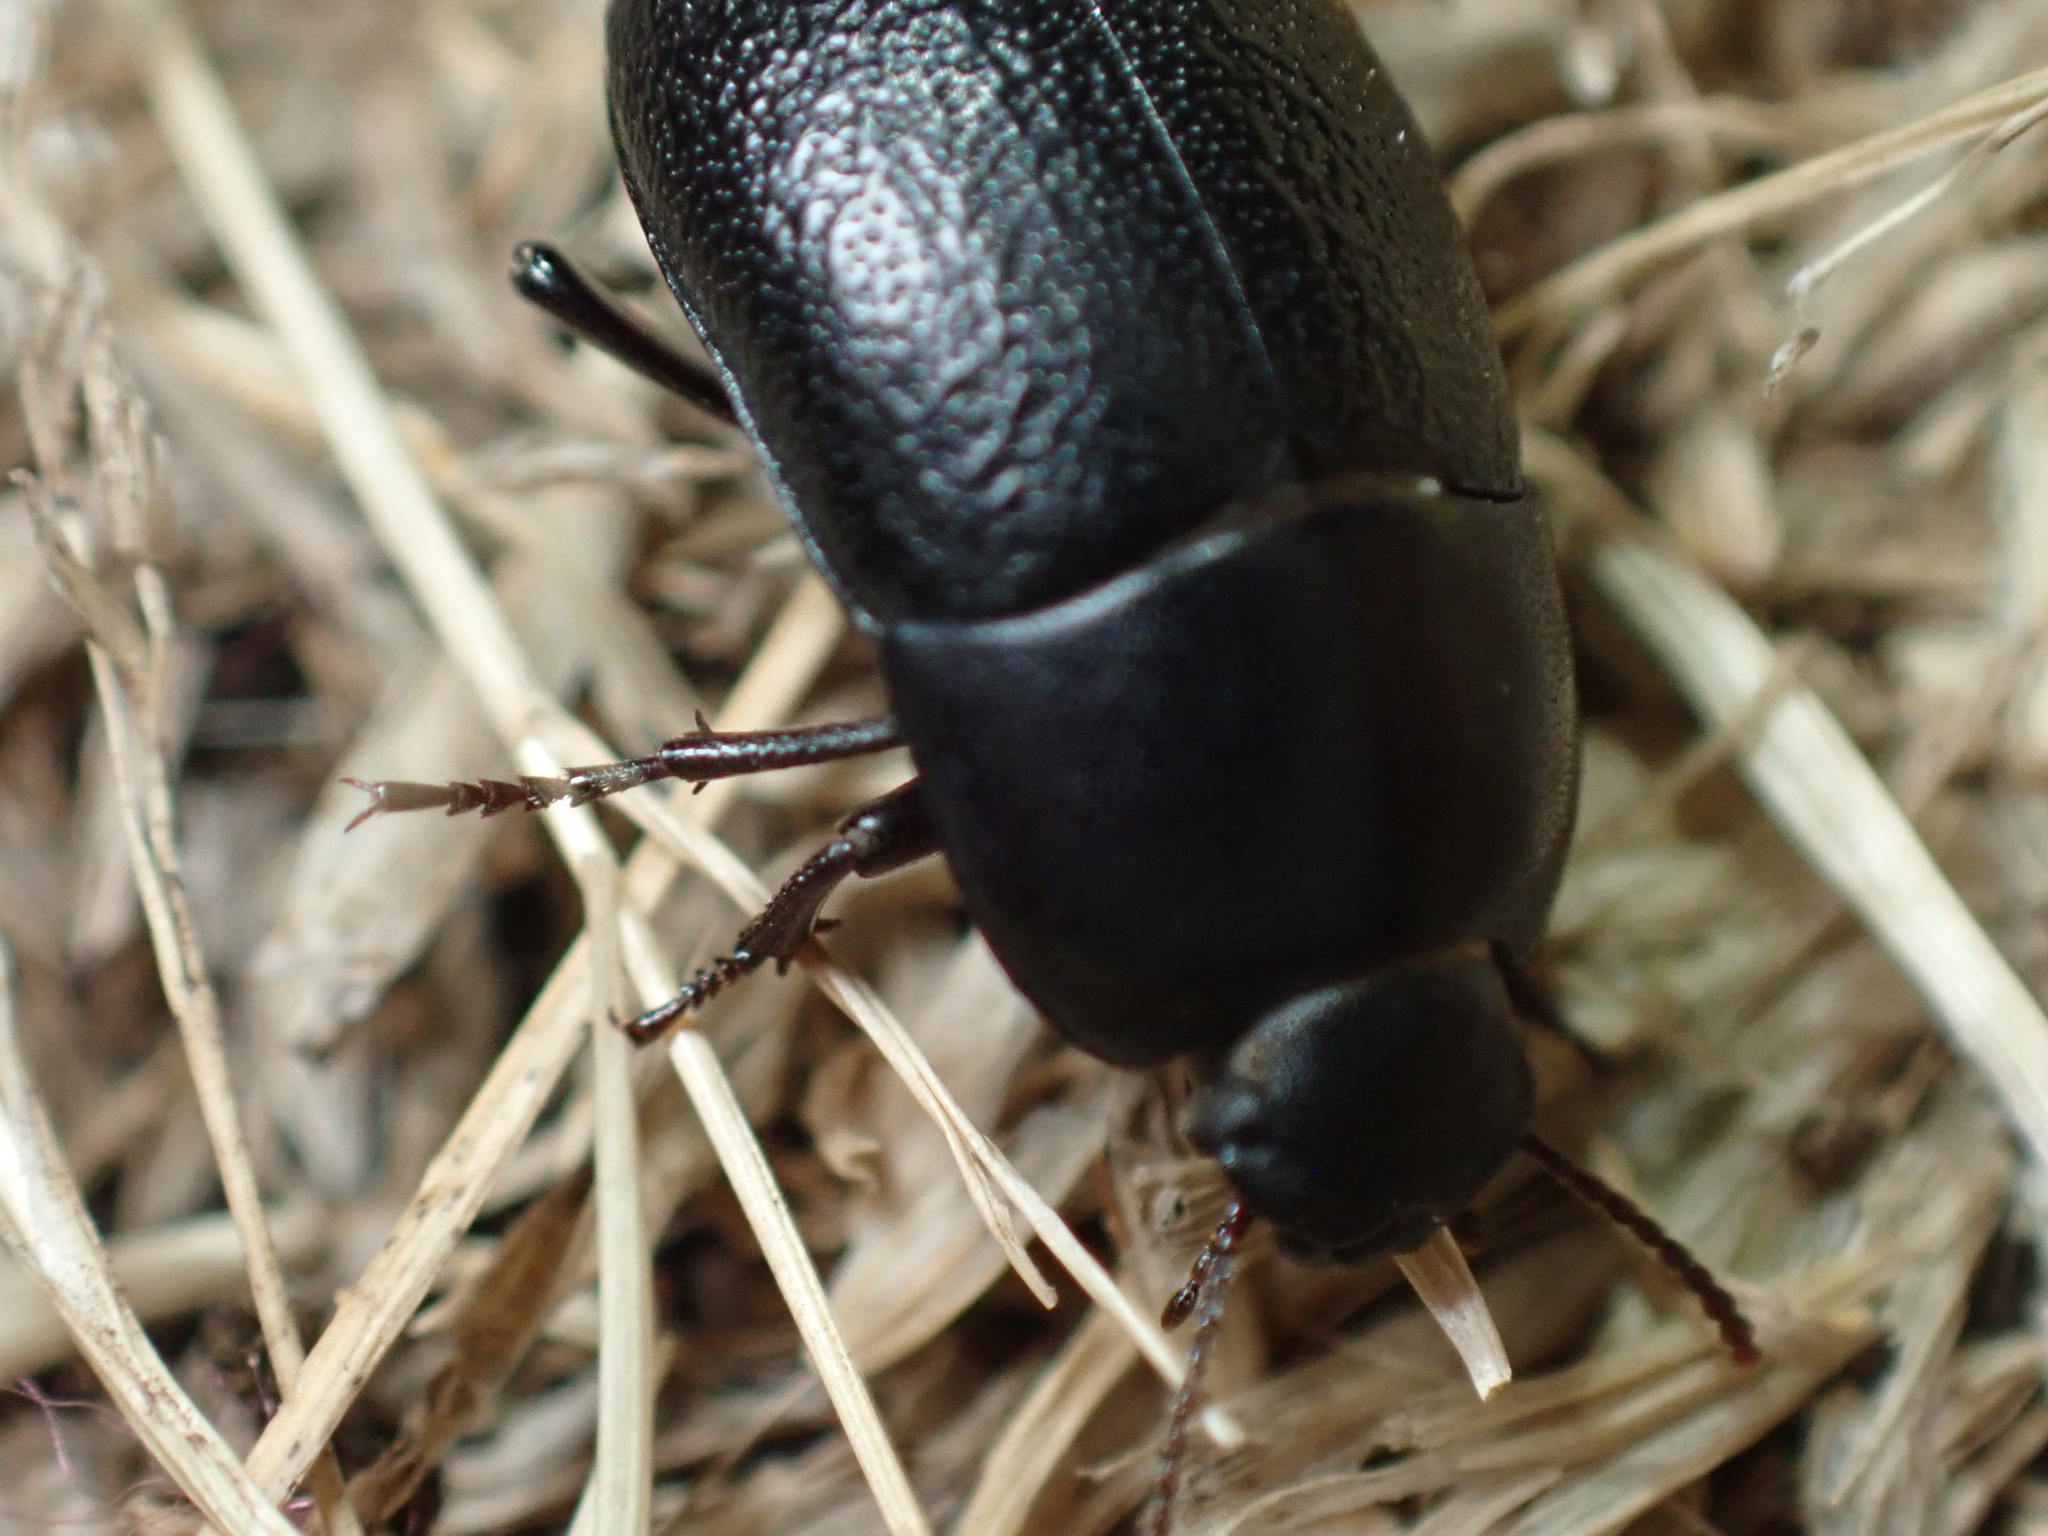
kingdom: Animalia
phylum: Arthropoda
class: Insecta
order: Coleoptera
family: Tenebrionidae
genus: Coniontis
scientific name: Coniontis
